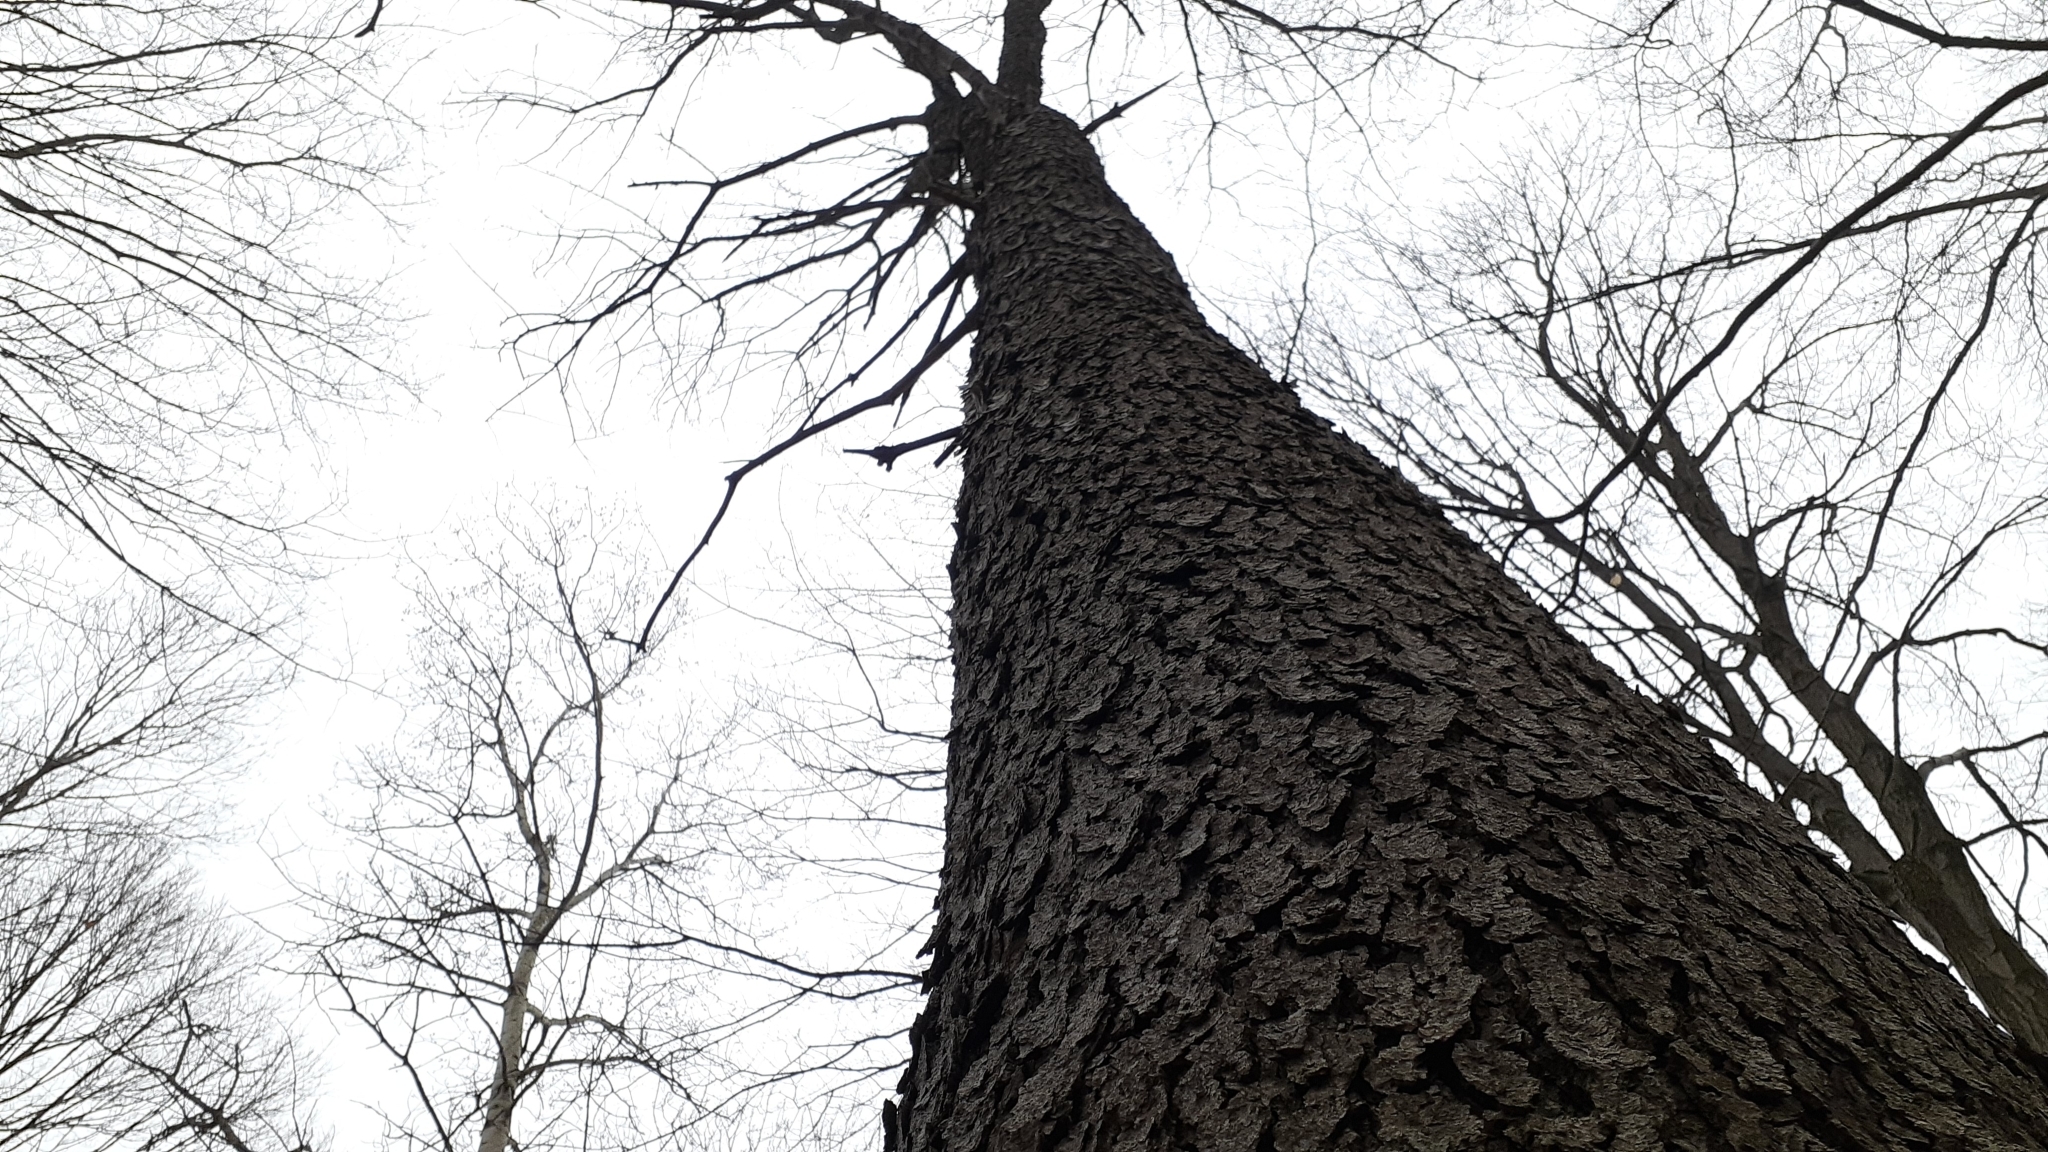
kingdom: Plantae
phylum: Tracheophyta
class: Magnoliopsida
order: Rosales
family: Rosaceae
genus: Prunus
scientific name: Prunus serotina
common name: Black cherry
